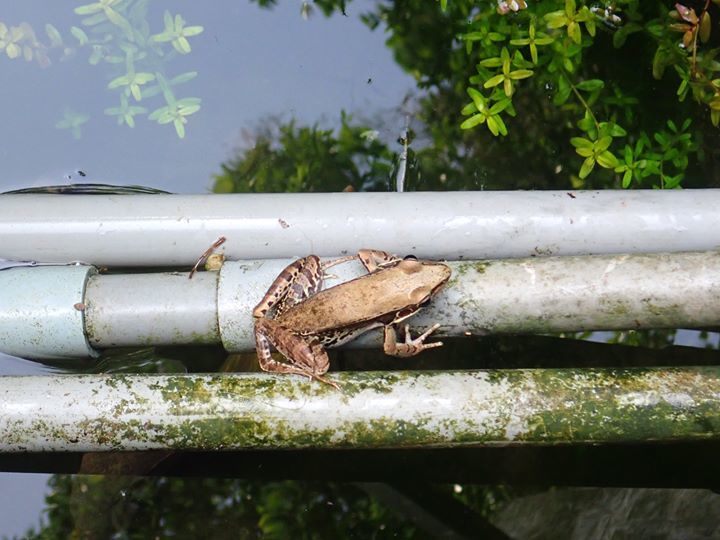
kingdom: Animalia
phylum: Chordata
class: Amphibia
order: Anura
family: Ranidae
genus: Sylvirana
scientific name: Sylvirana guentheri
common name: Guenther's amoy frog
